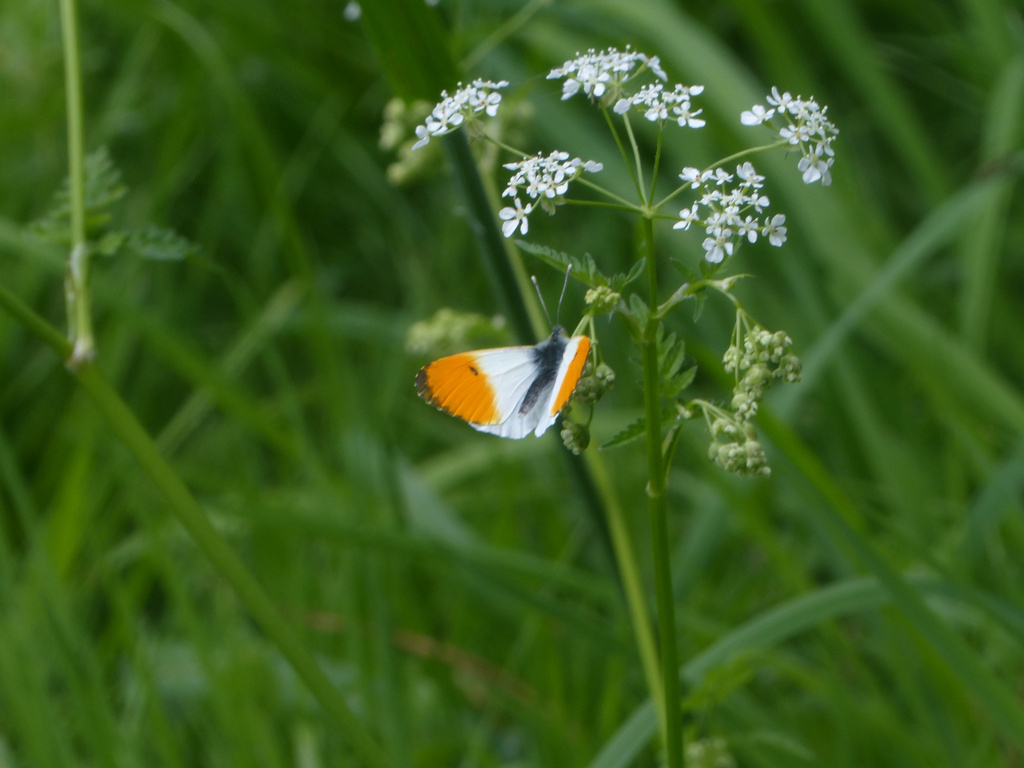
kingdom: Animalia
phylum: Arthropoda
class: Insecta
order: Lepidoptera
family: Pieridae
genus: Anthocharis
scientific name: Anthocharis cardamines
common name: Orange-tip
